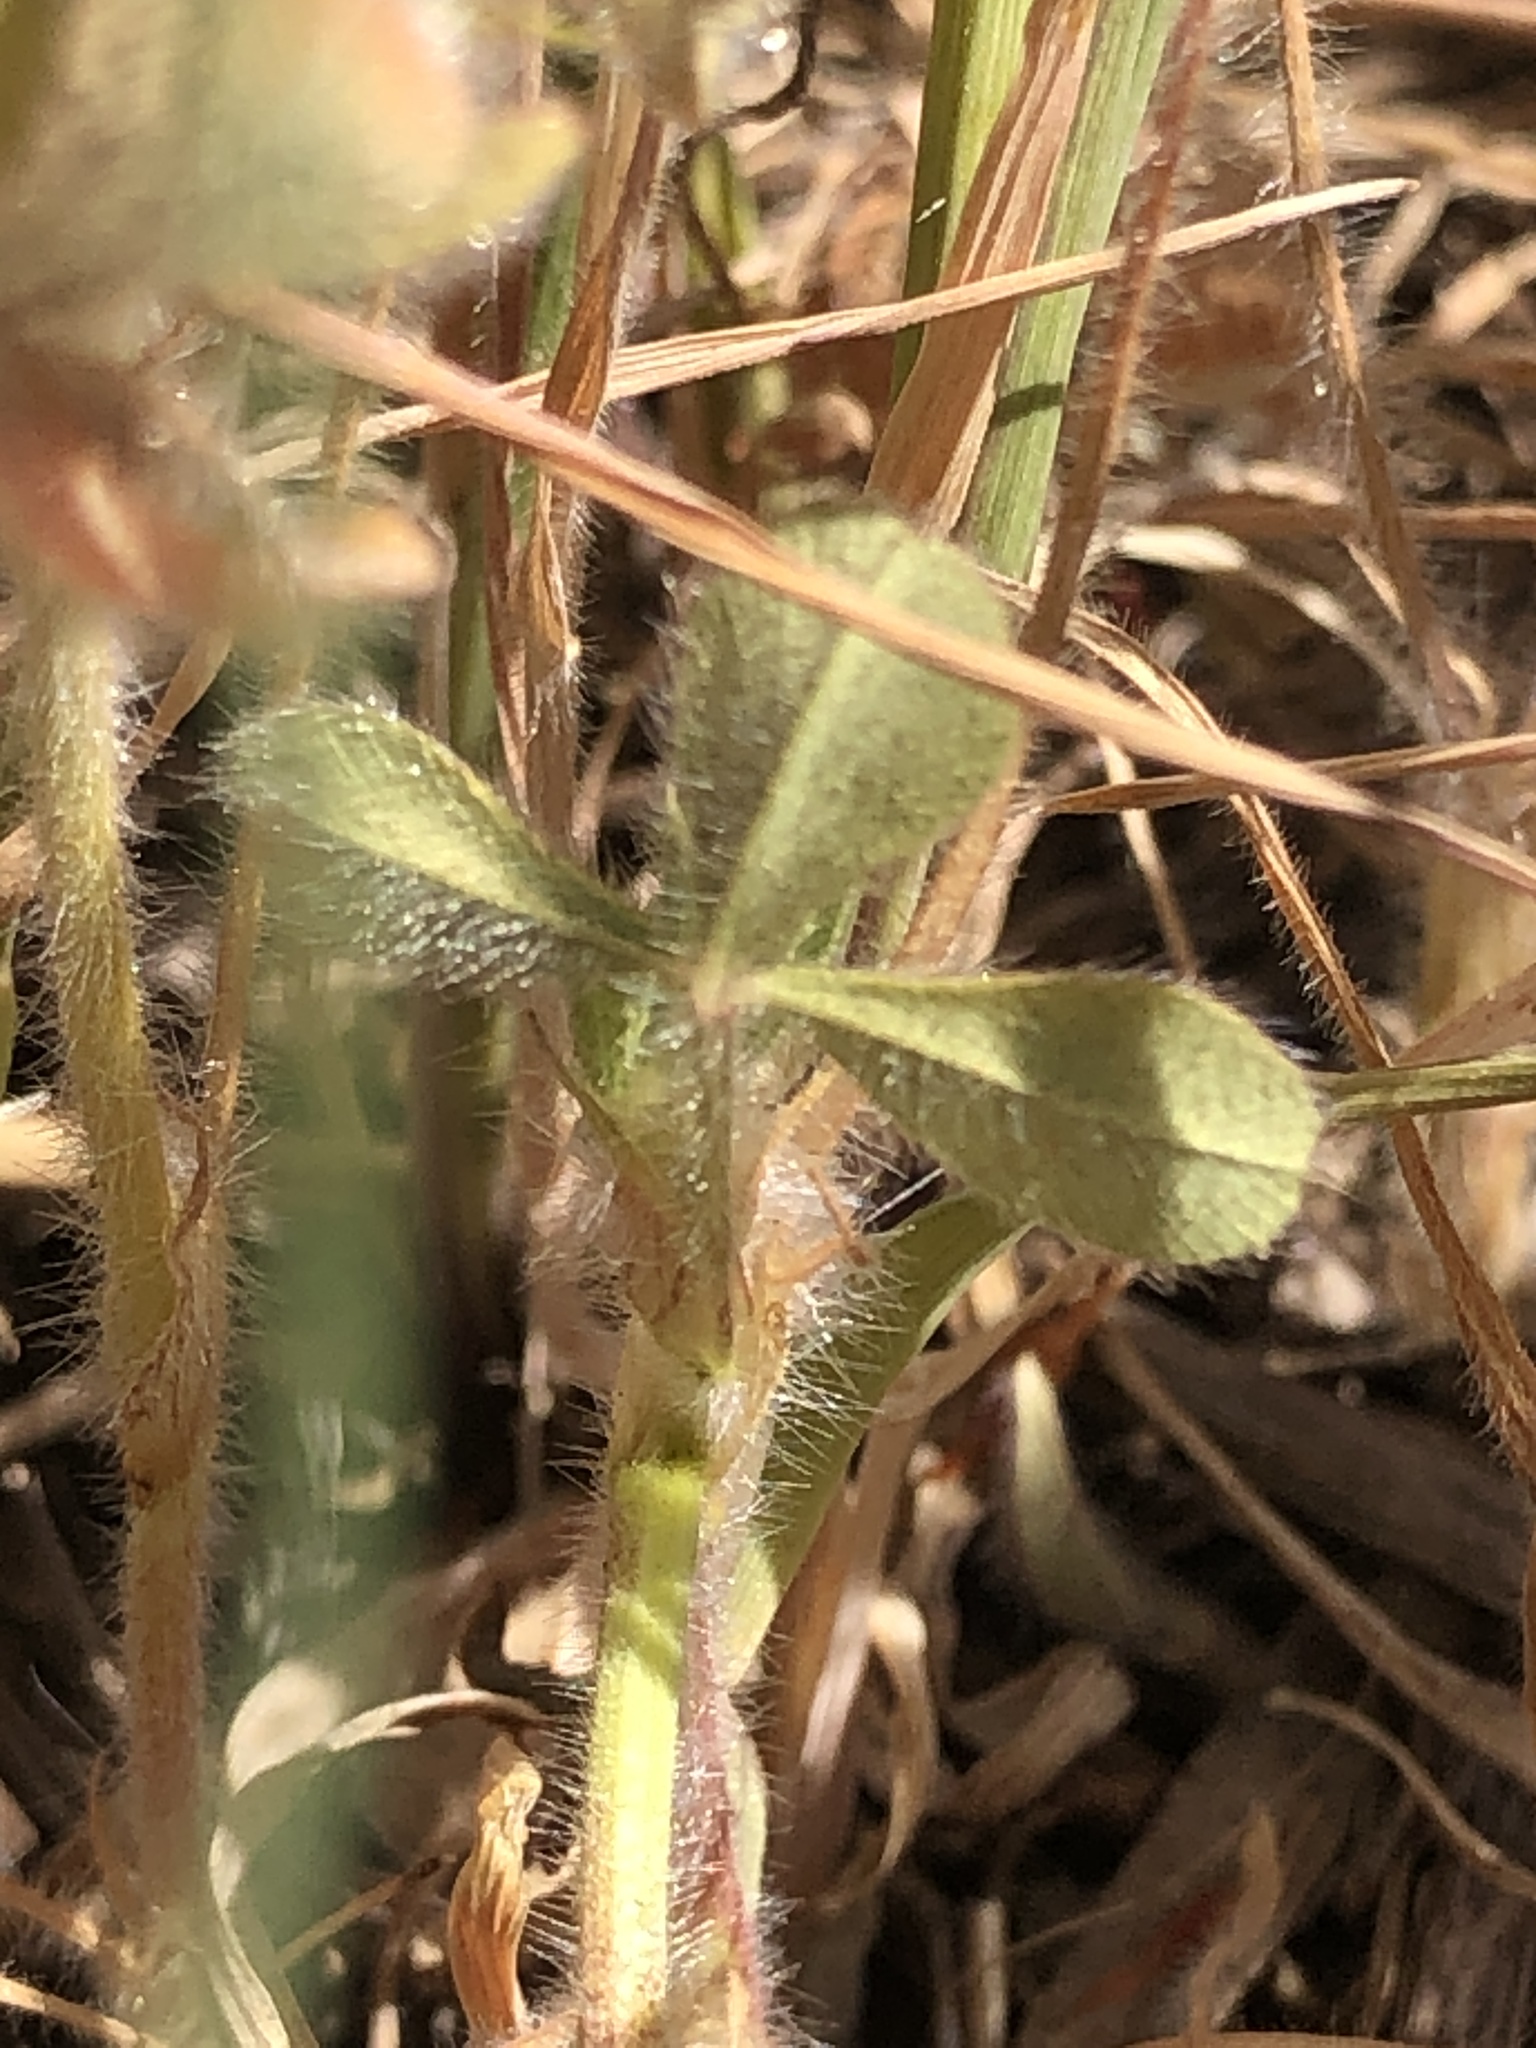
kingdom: Plantae
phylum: Tracheophyta
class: Magnoliopsida
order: Fabales
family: Fabaceae
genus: Trifolium
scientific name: Trifolium hirtum
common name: Rose clover
